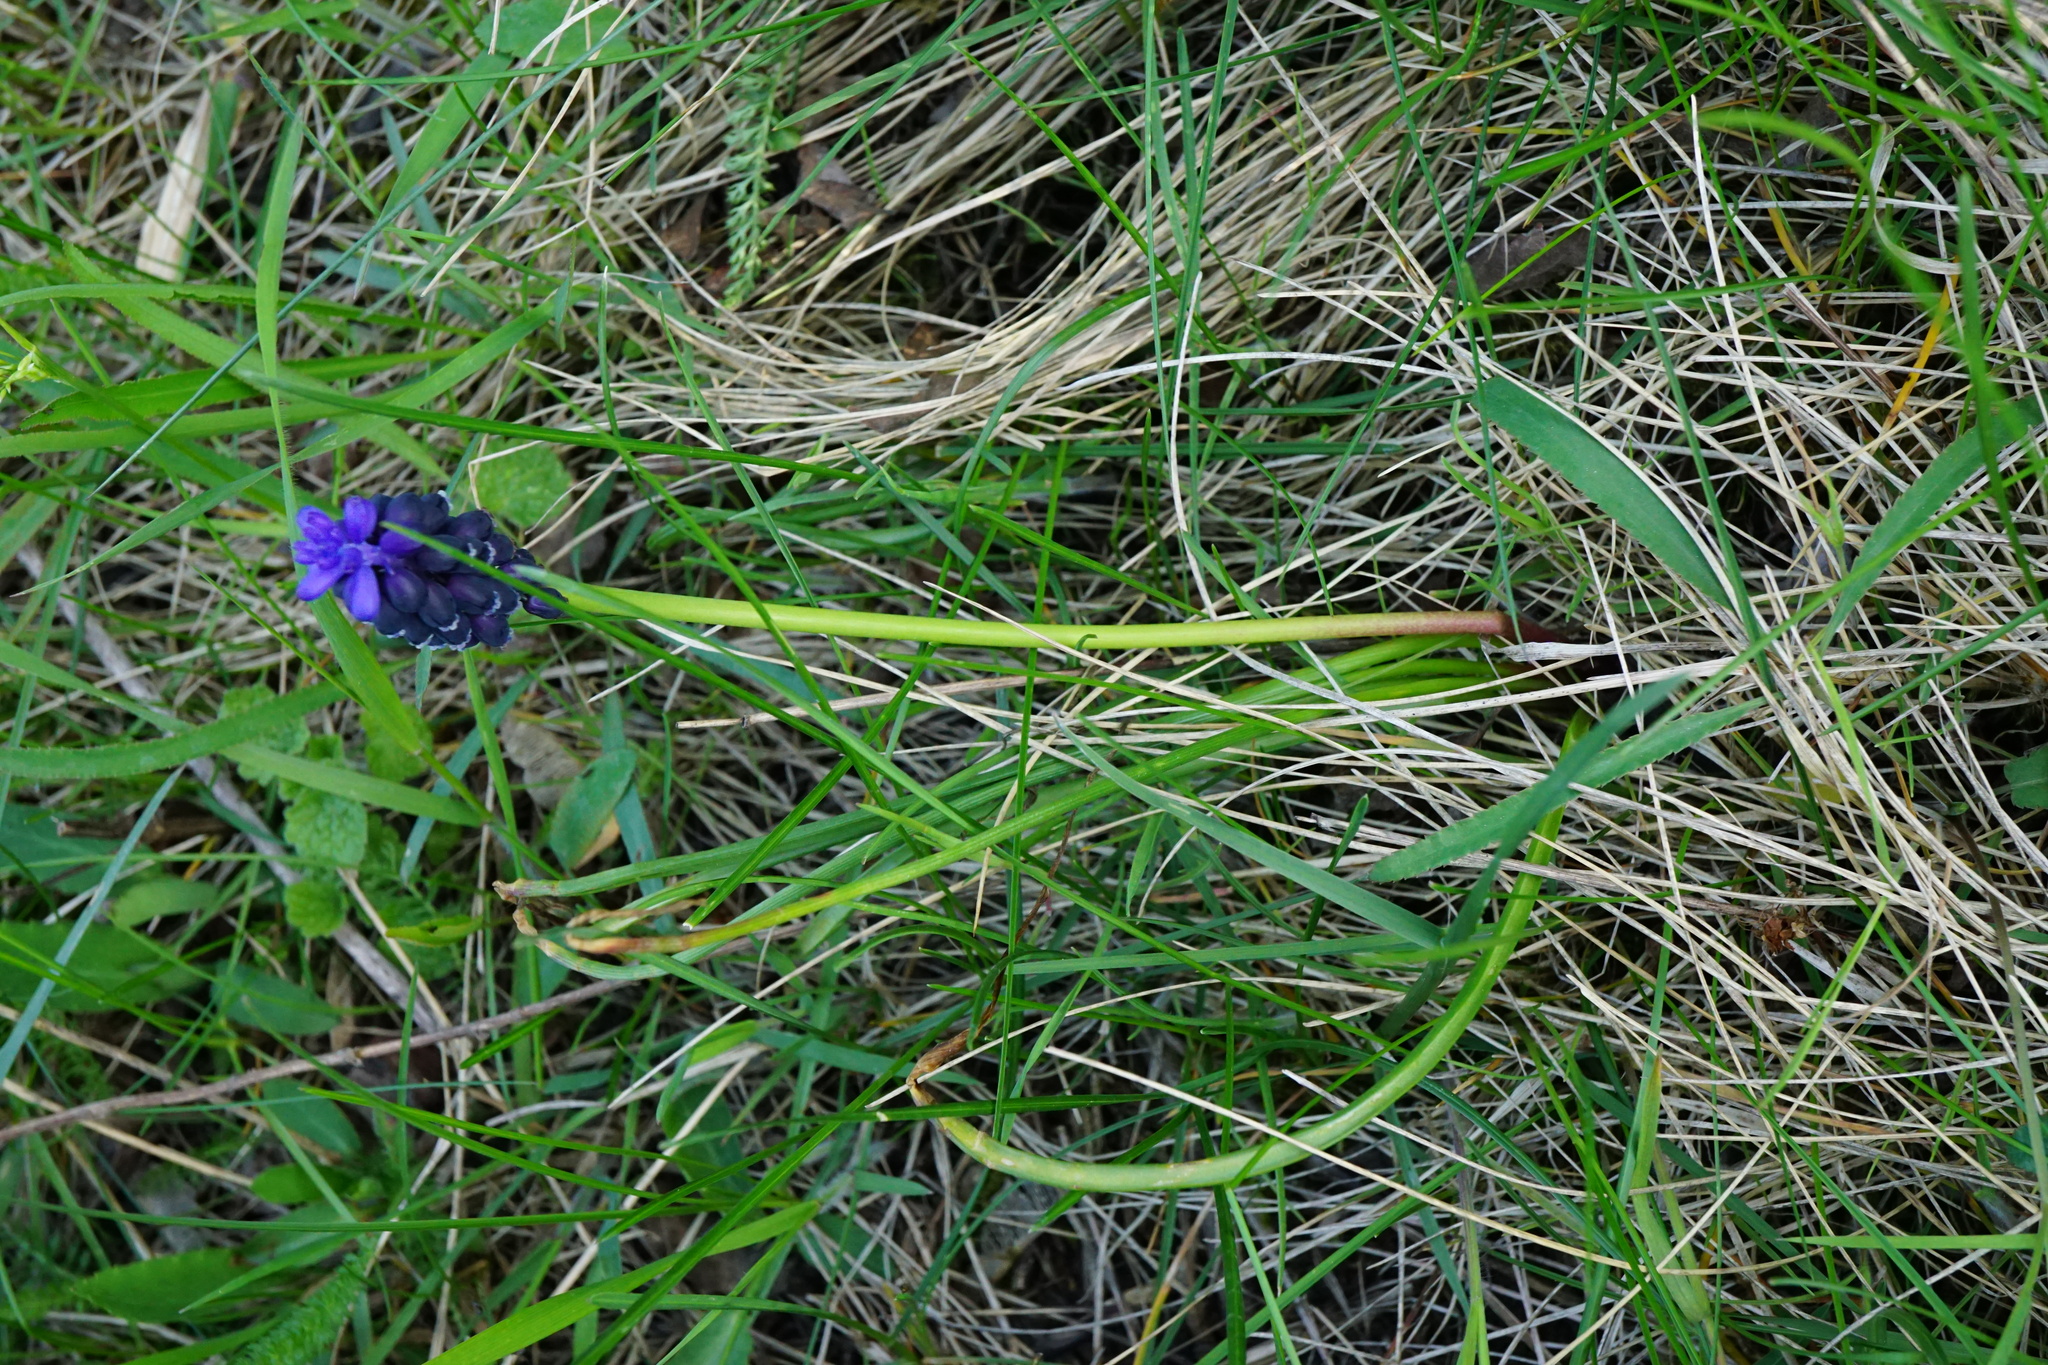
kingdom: Plantae
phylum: Tracheophyta
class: Liliopsida
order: Asparagales
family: Asparagaceae
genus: Muscari
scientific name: Muscari neglectum
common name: Grape-hyacinth
